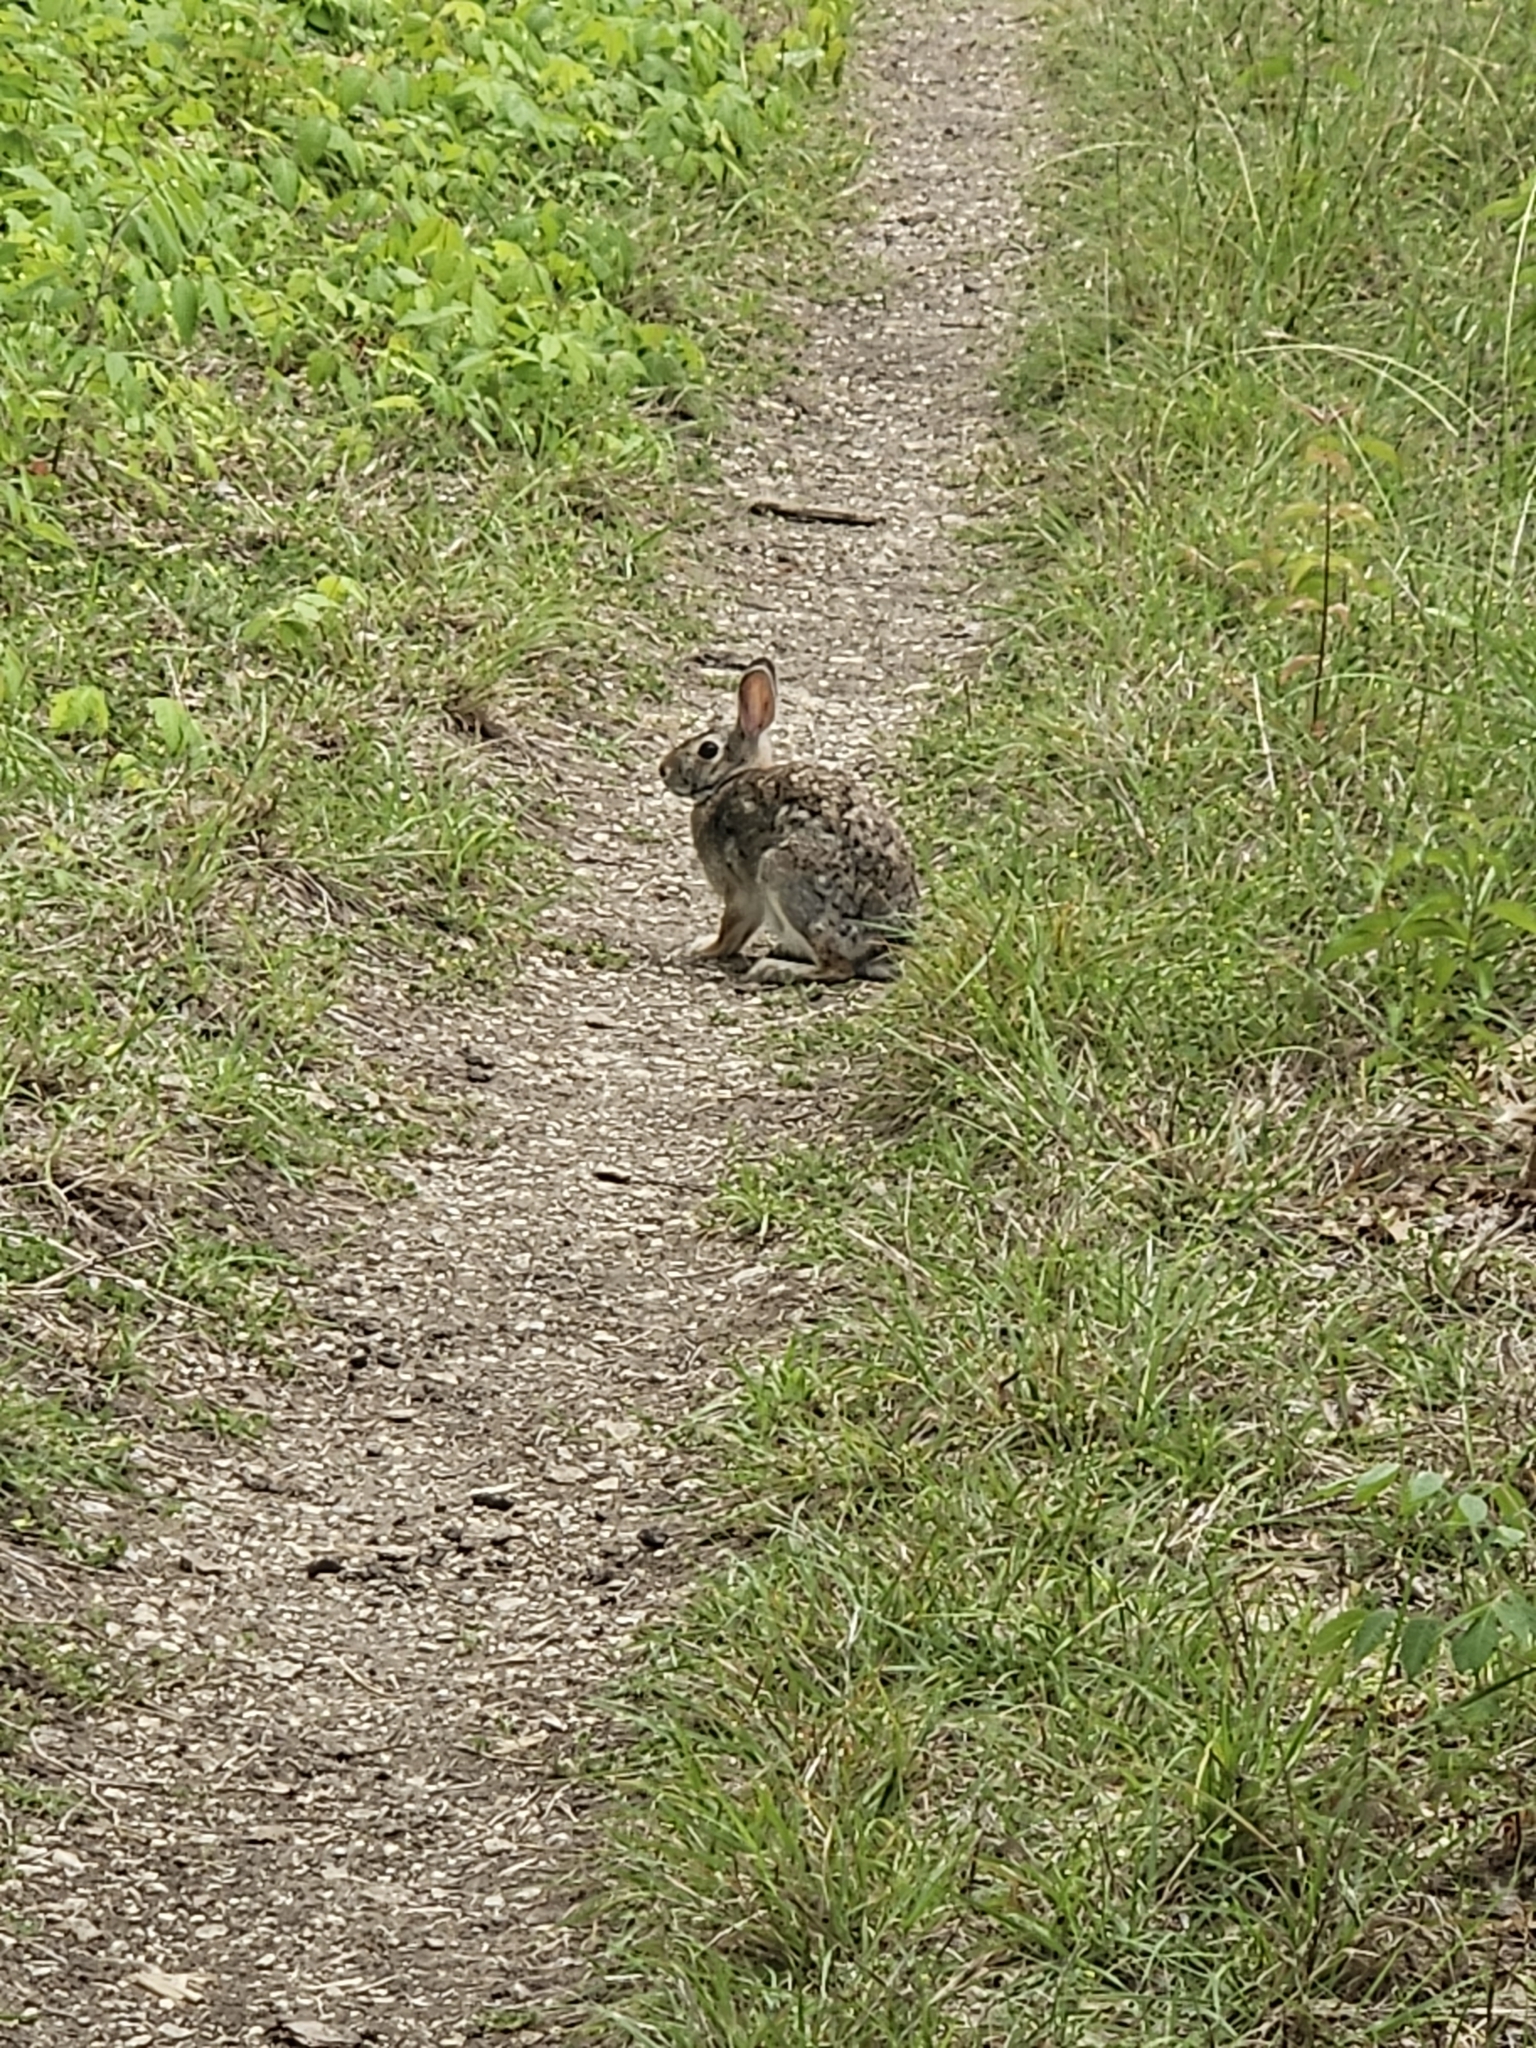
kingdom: Animalia
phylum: Chordata
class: Mammalia
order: Lagomorpha
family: Leporidae
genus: Sylvilagus
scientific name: Sylvilagus floridanus
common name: Eastern cottontail
